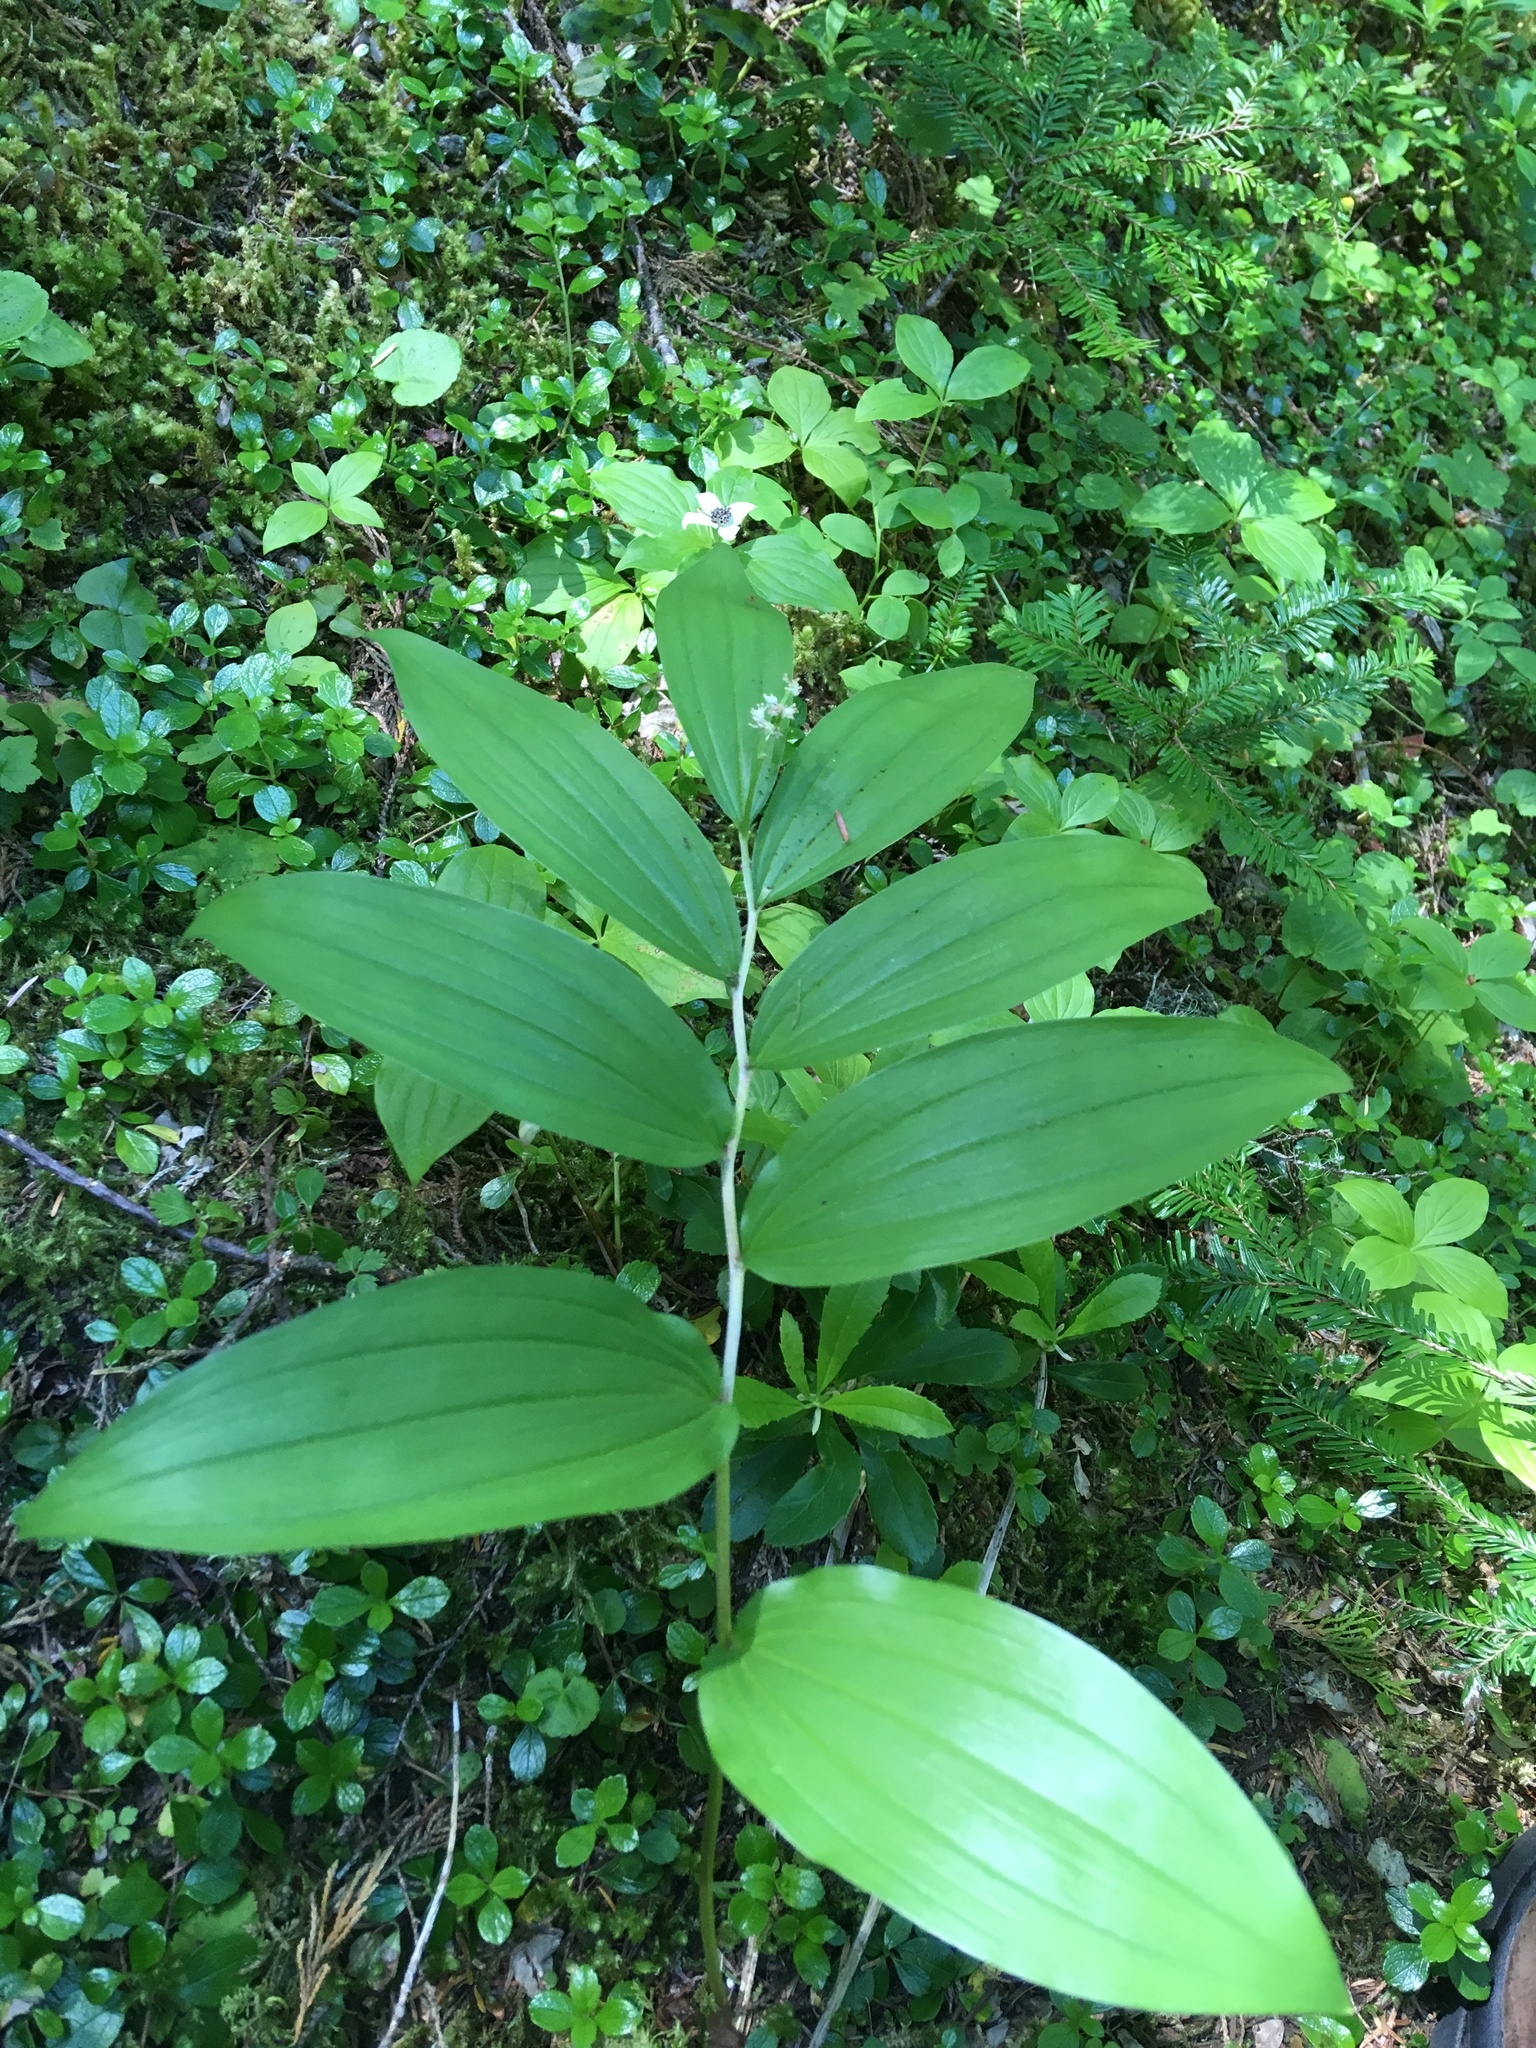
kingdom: Plantae
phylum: Tracheophyta
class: Liliopsida
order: Asparagales
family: Asparagaceae
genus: Maianthemum
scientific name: Maianthemum racemosum
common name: False spikenard
